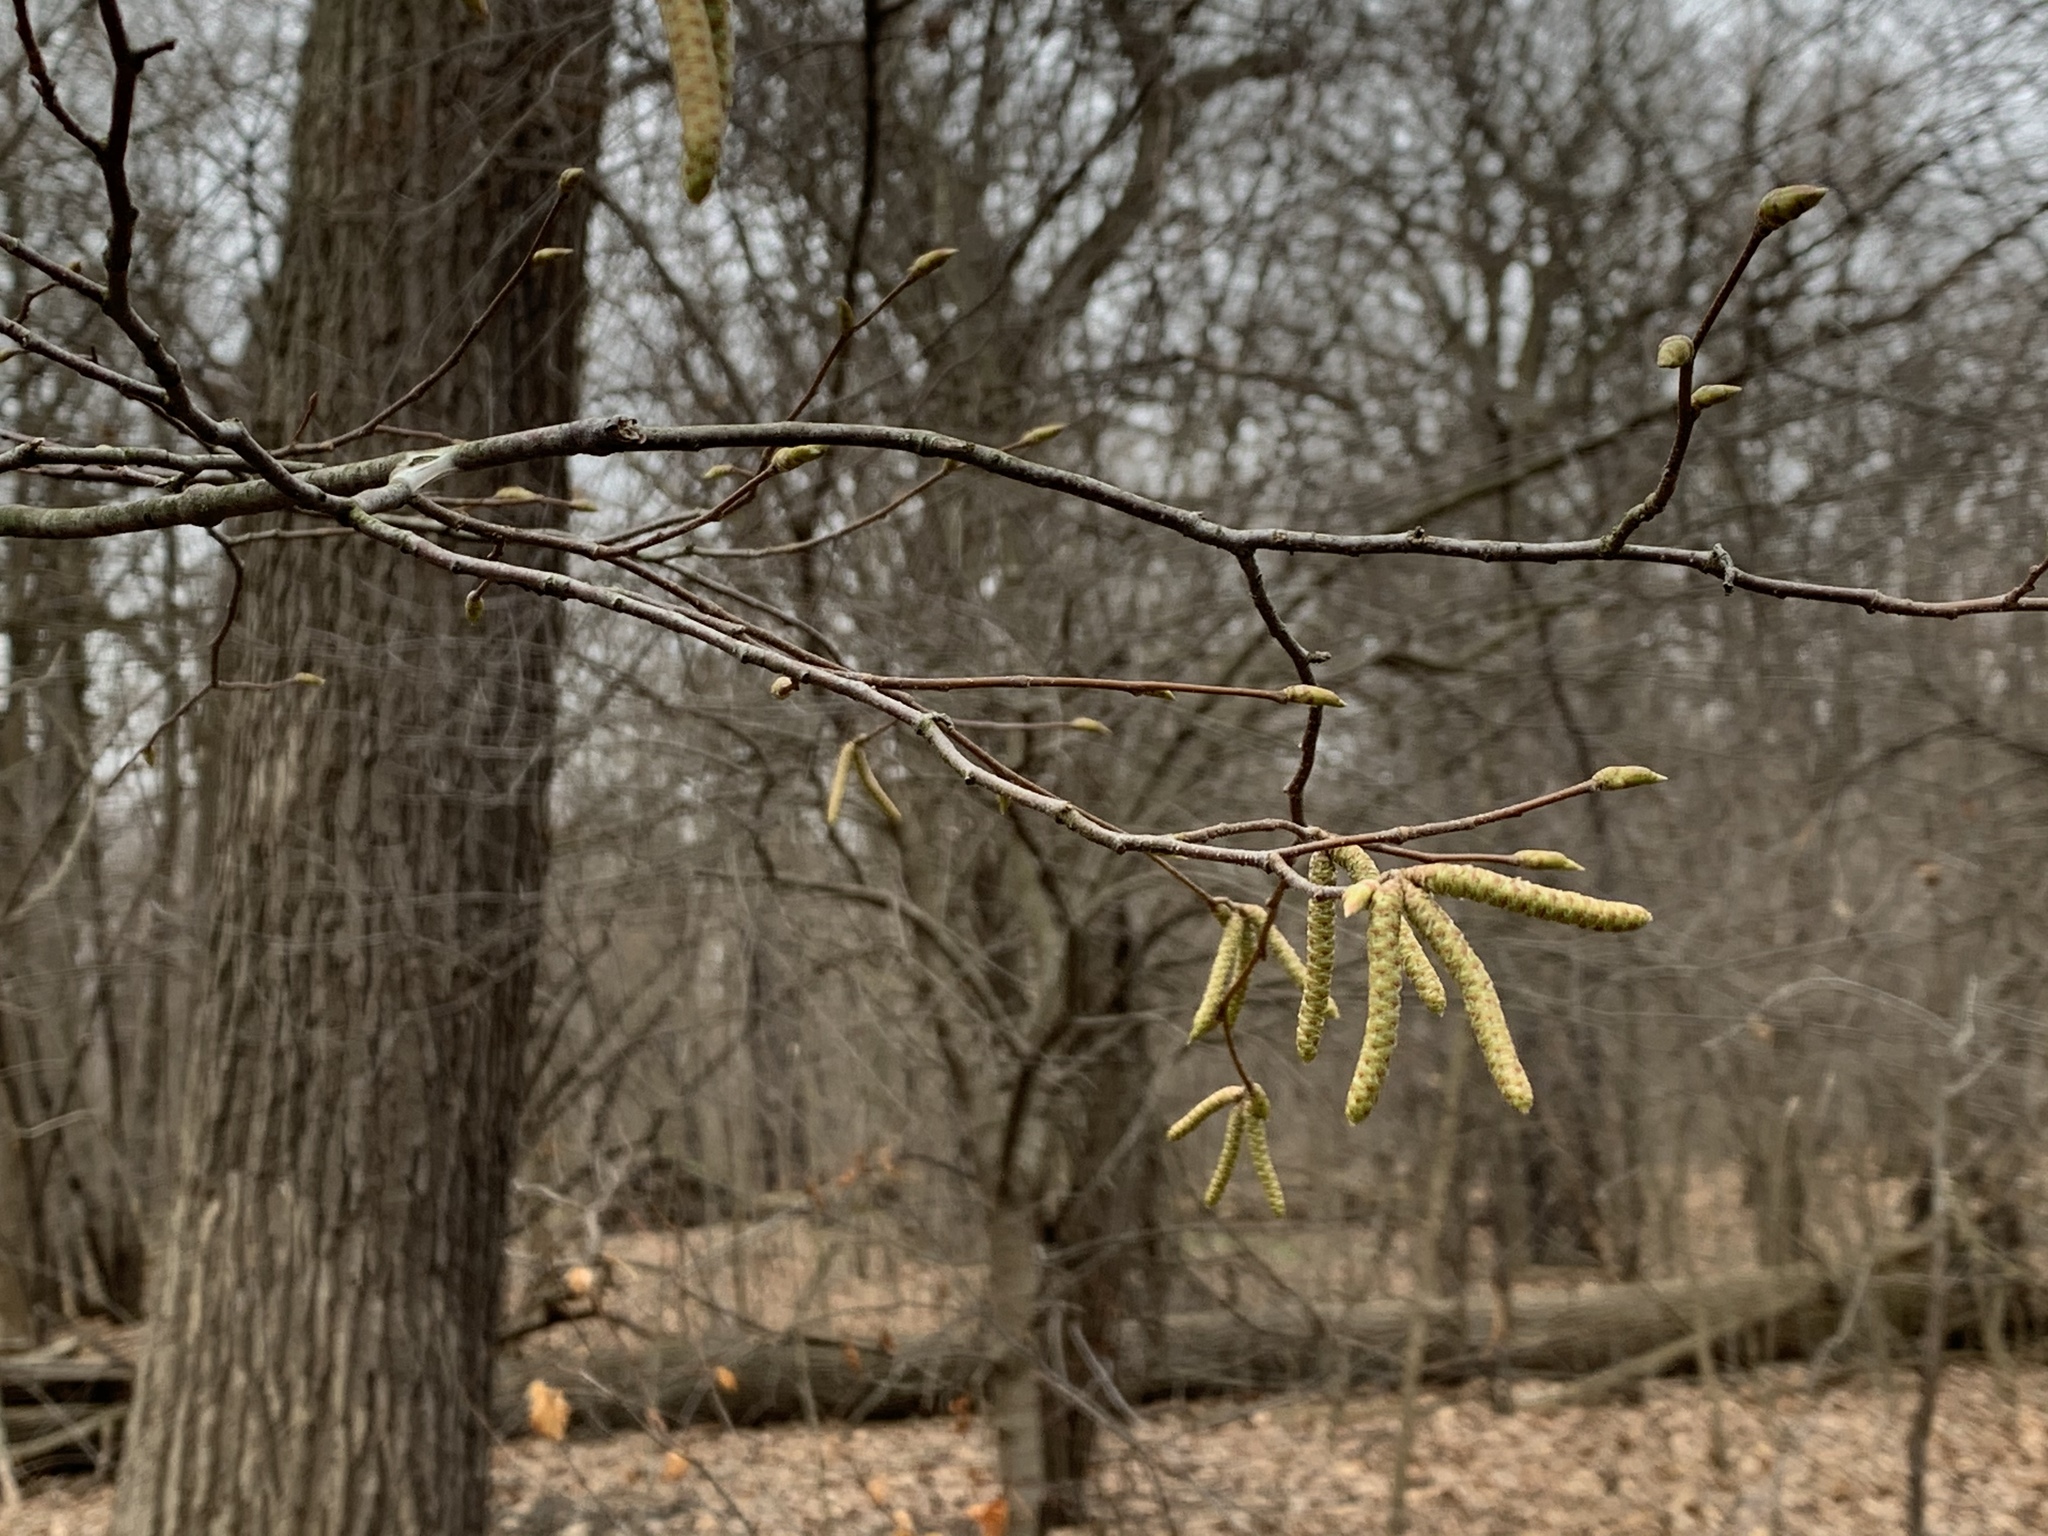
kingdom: Plantae
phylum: Tracheophyta
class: Magnoliopsida
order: Fagales
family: Betulaceae
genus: Ostrya
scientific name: Ostrya virginiana
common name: Ironwood
